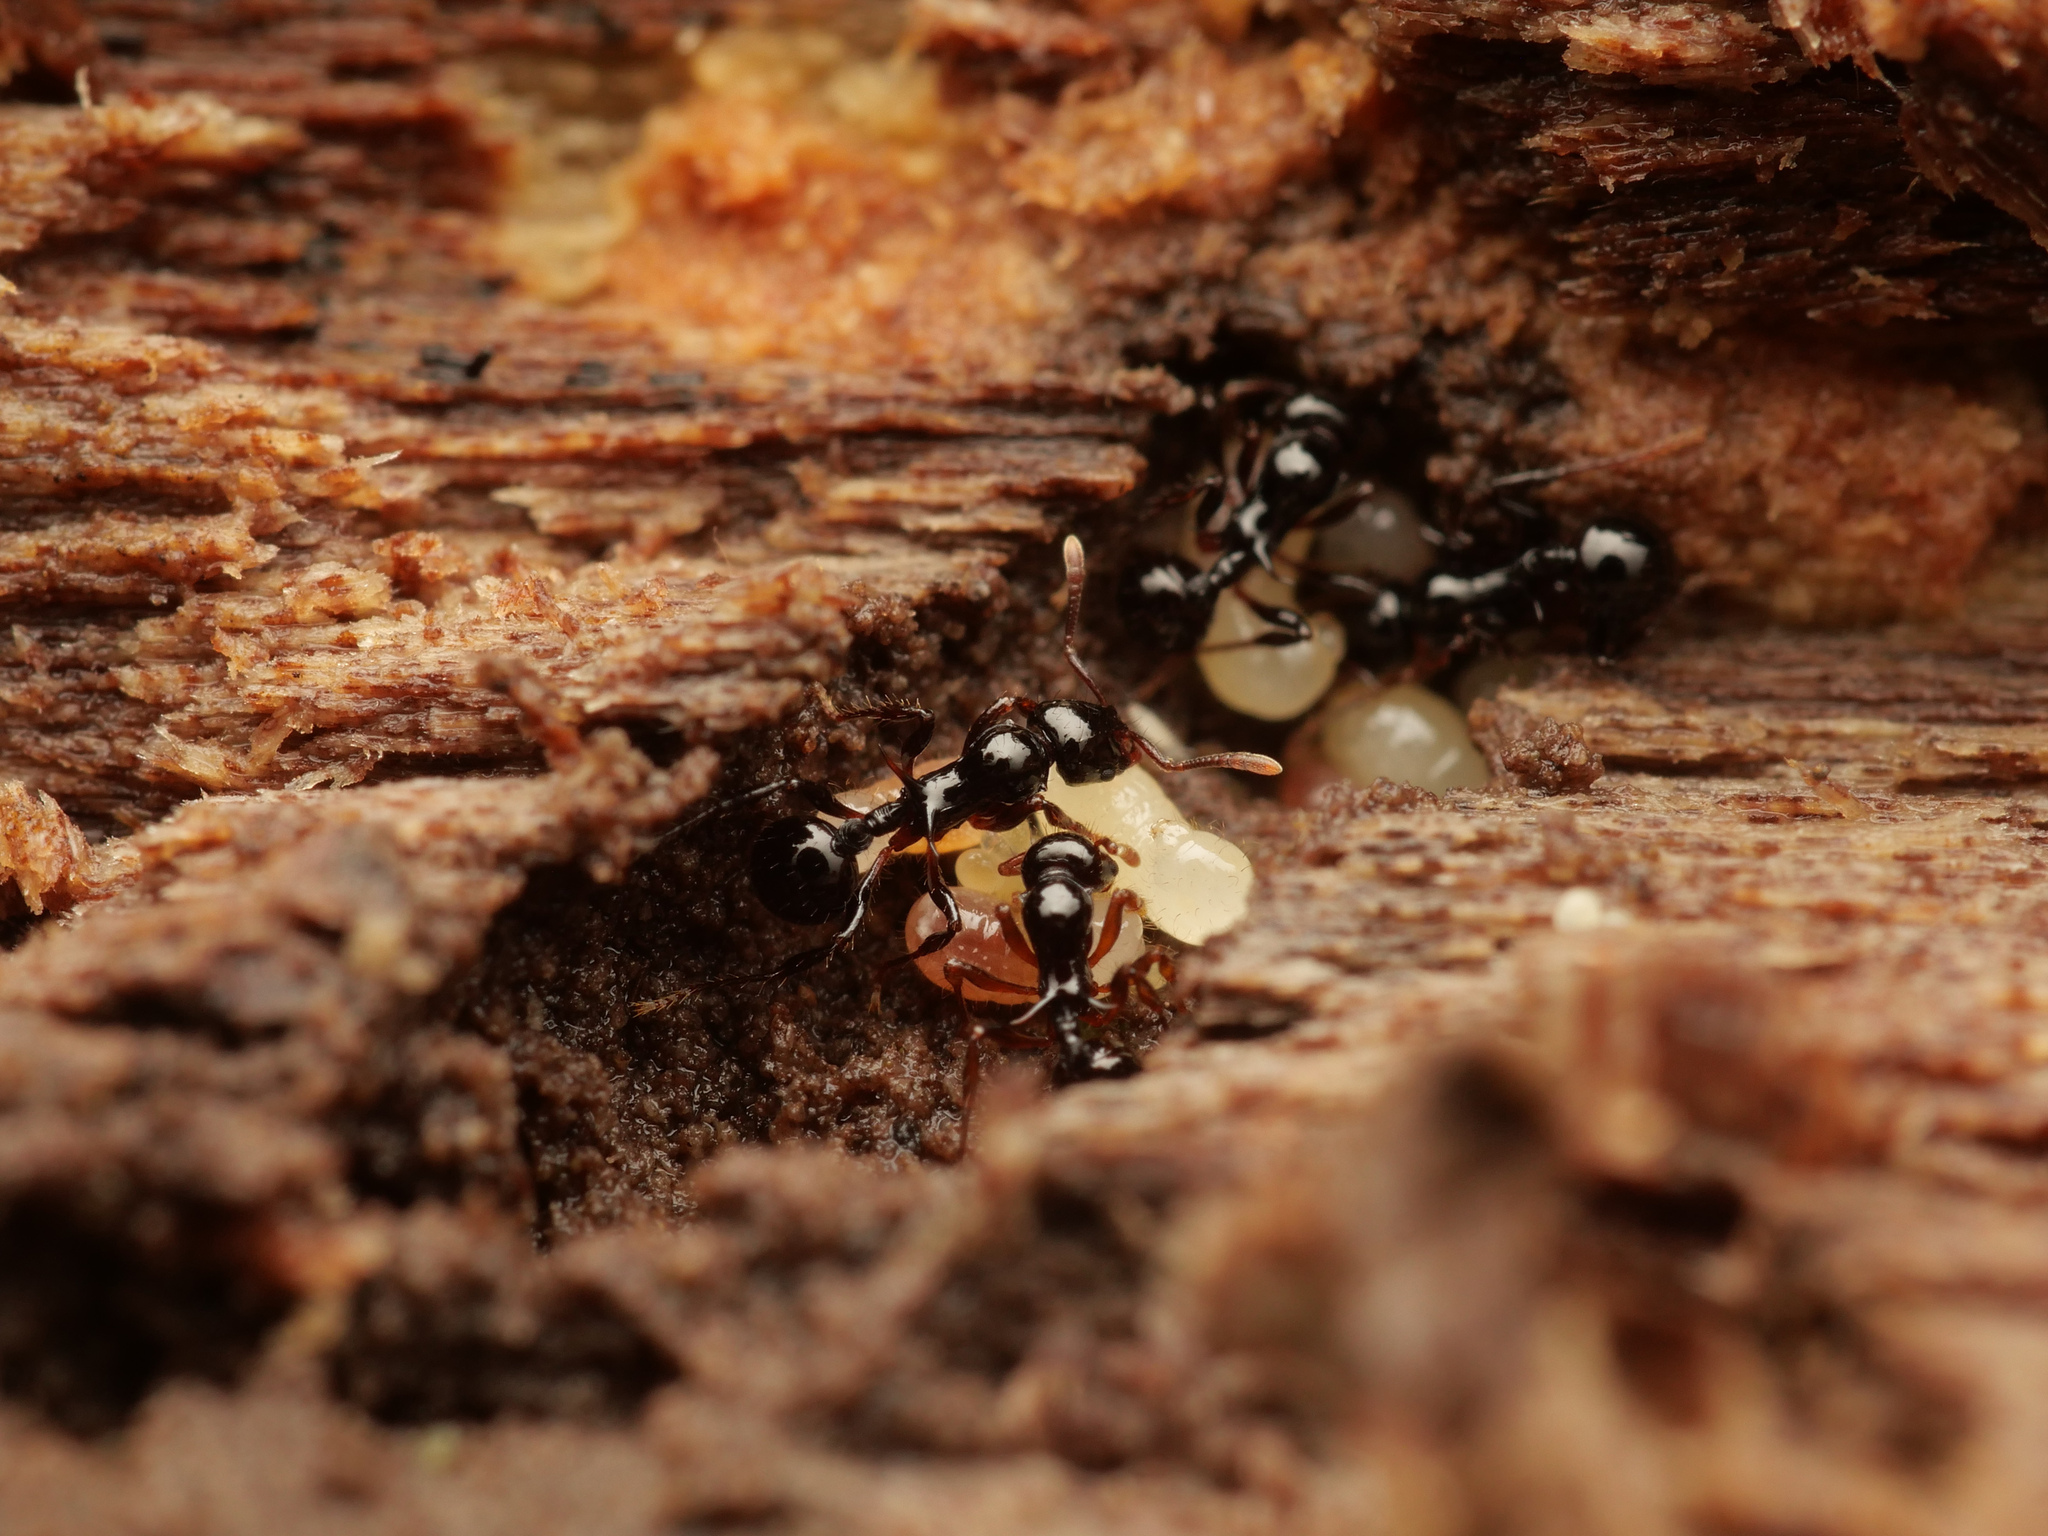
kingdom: Animalia
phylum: Arthropoda
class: Insecta
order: Hymenoptera
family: Formicidae
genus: Lordomyrma
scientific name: Lordomyrma crawleyi
